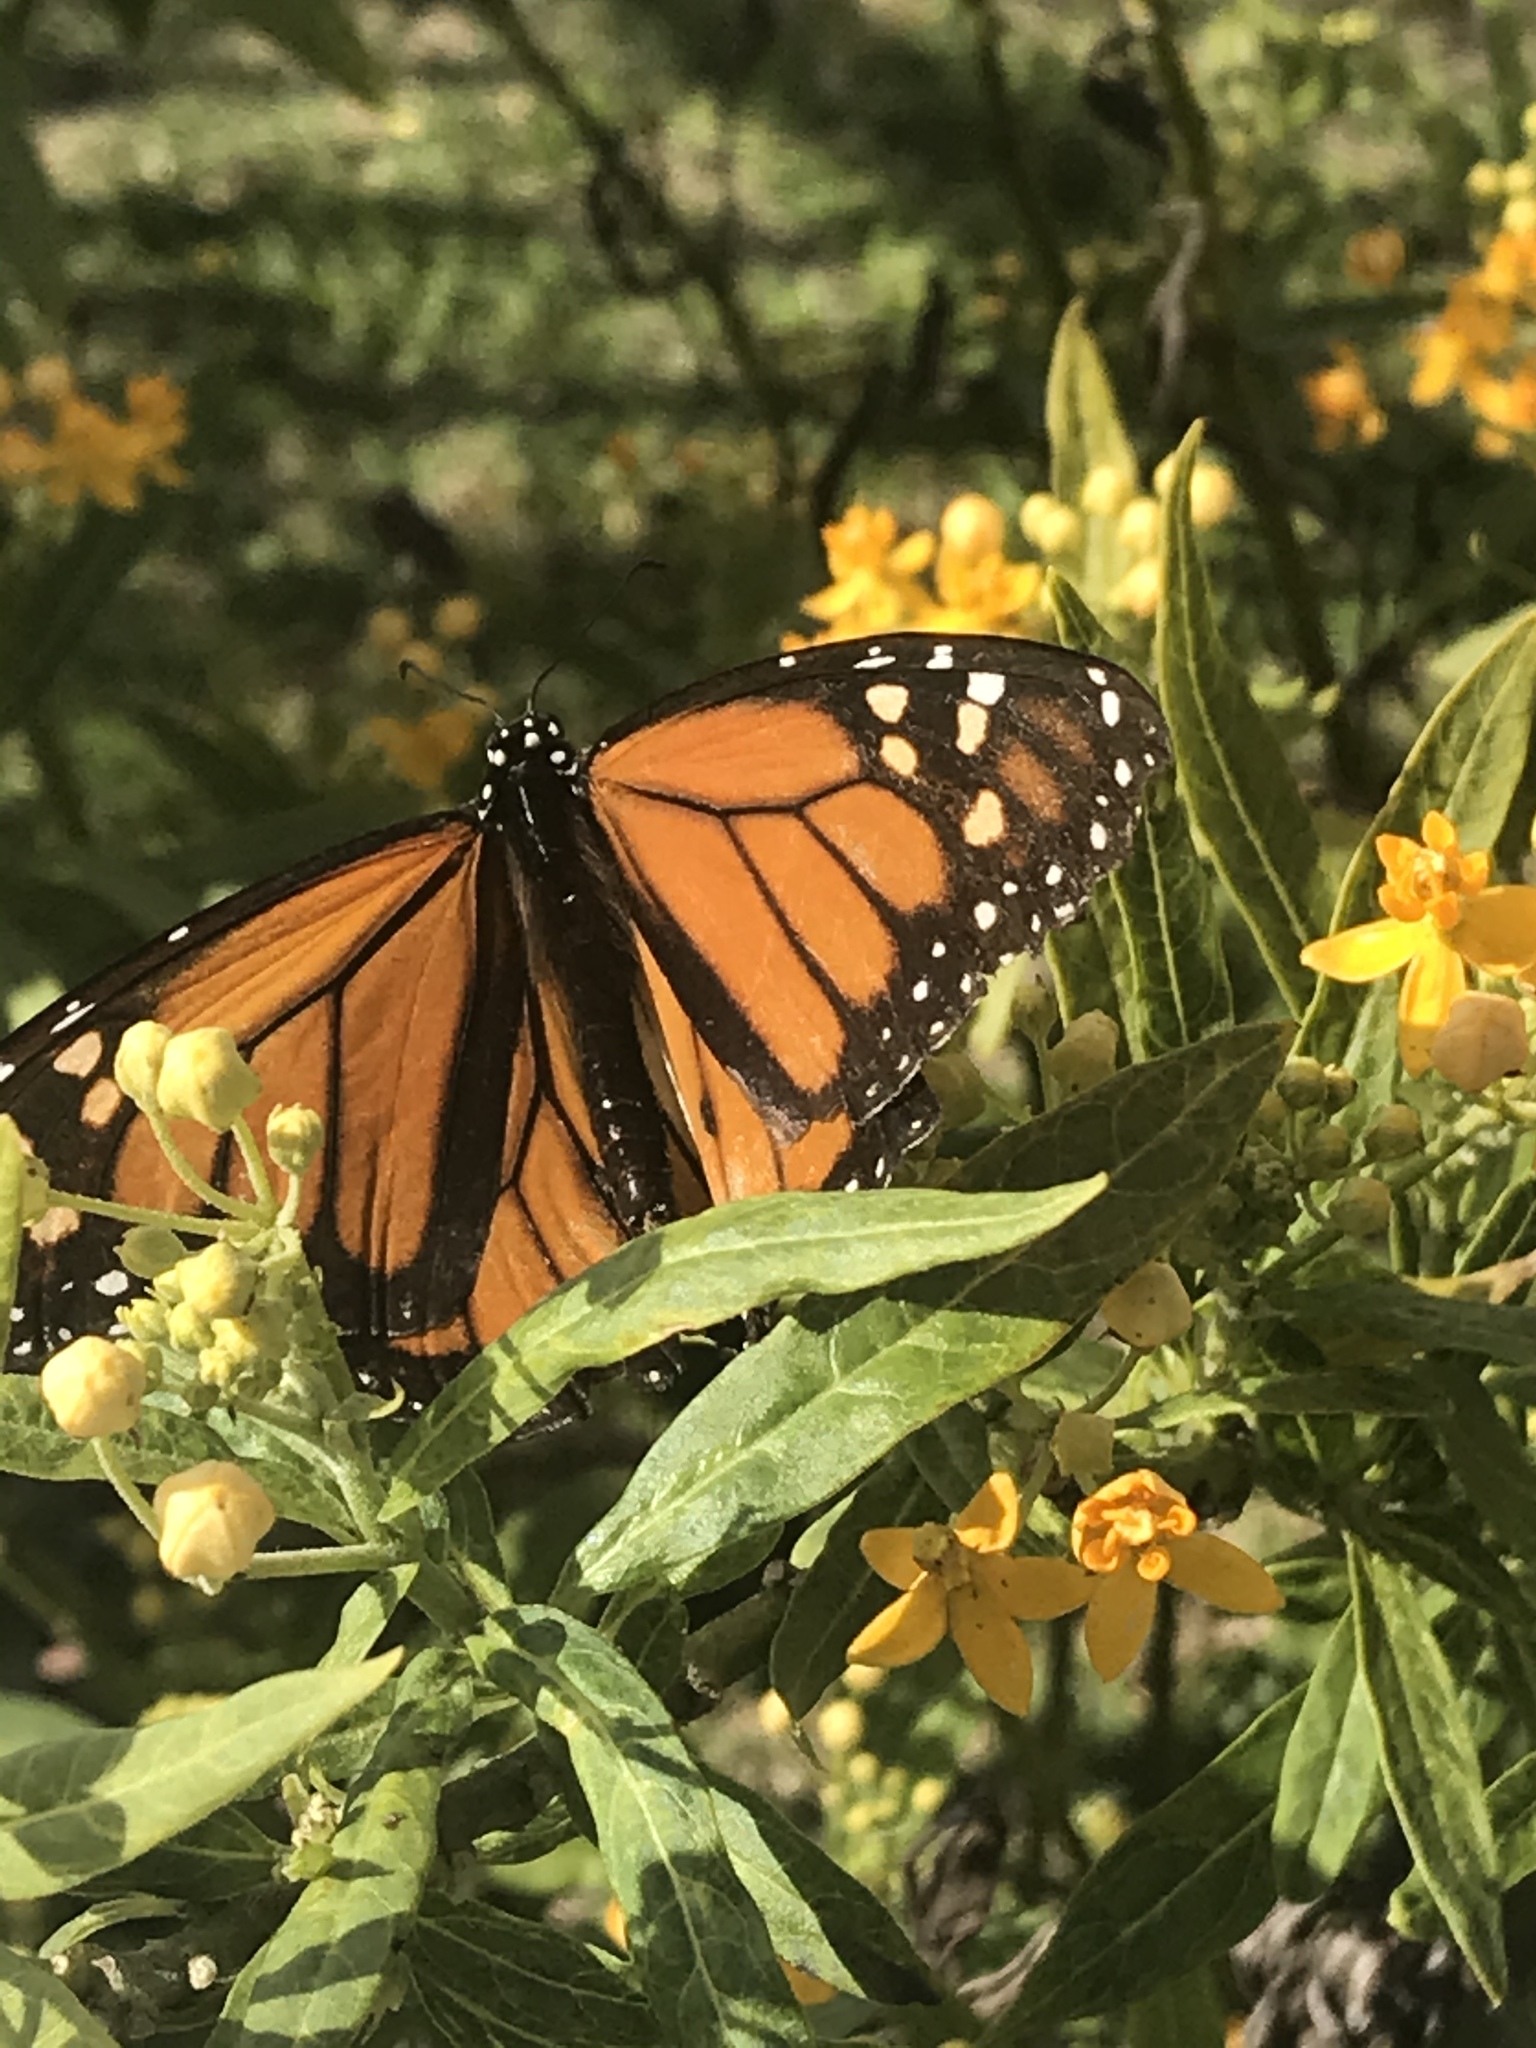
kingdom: Animalia
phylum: Arthropoda
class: Insecta
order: Lepidoptera
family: Nymphalidae
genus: Danaus
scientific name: Danaus plexippus
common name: Monarch
